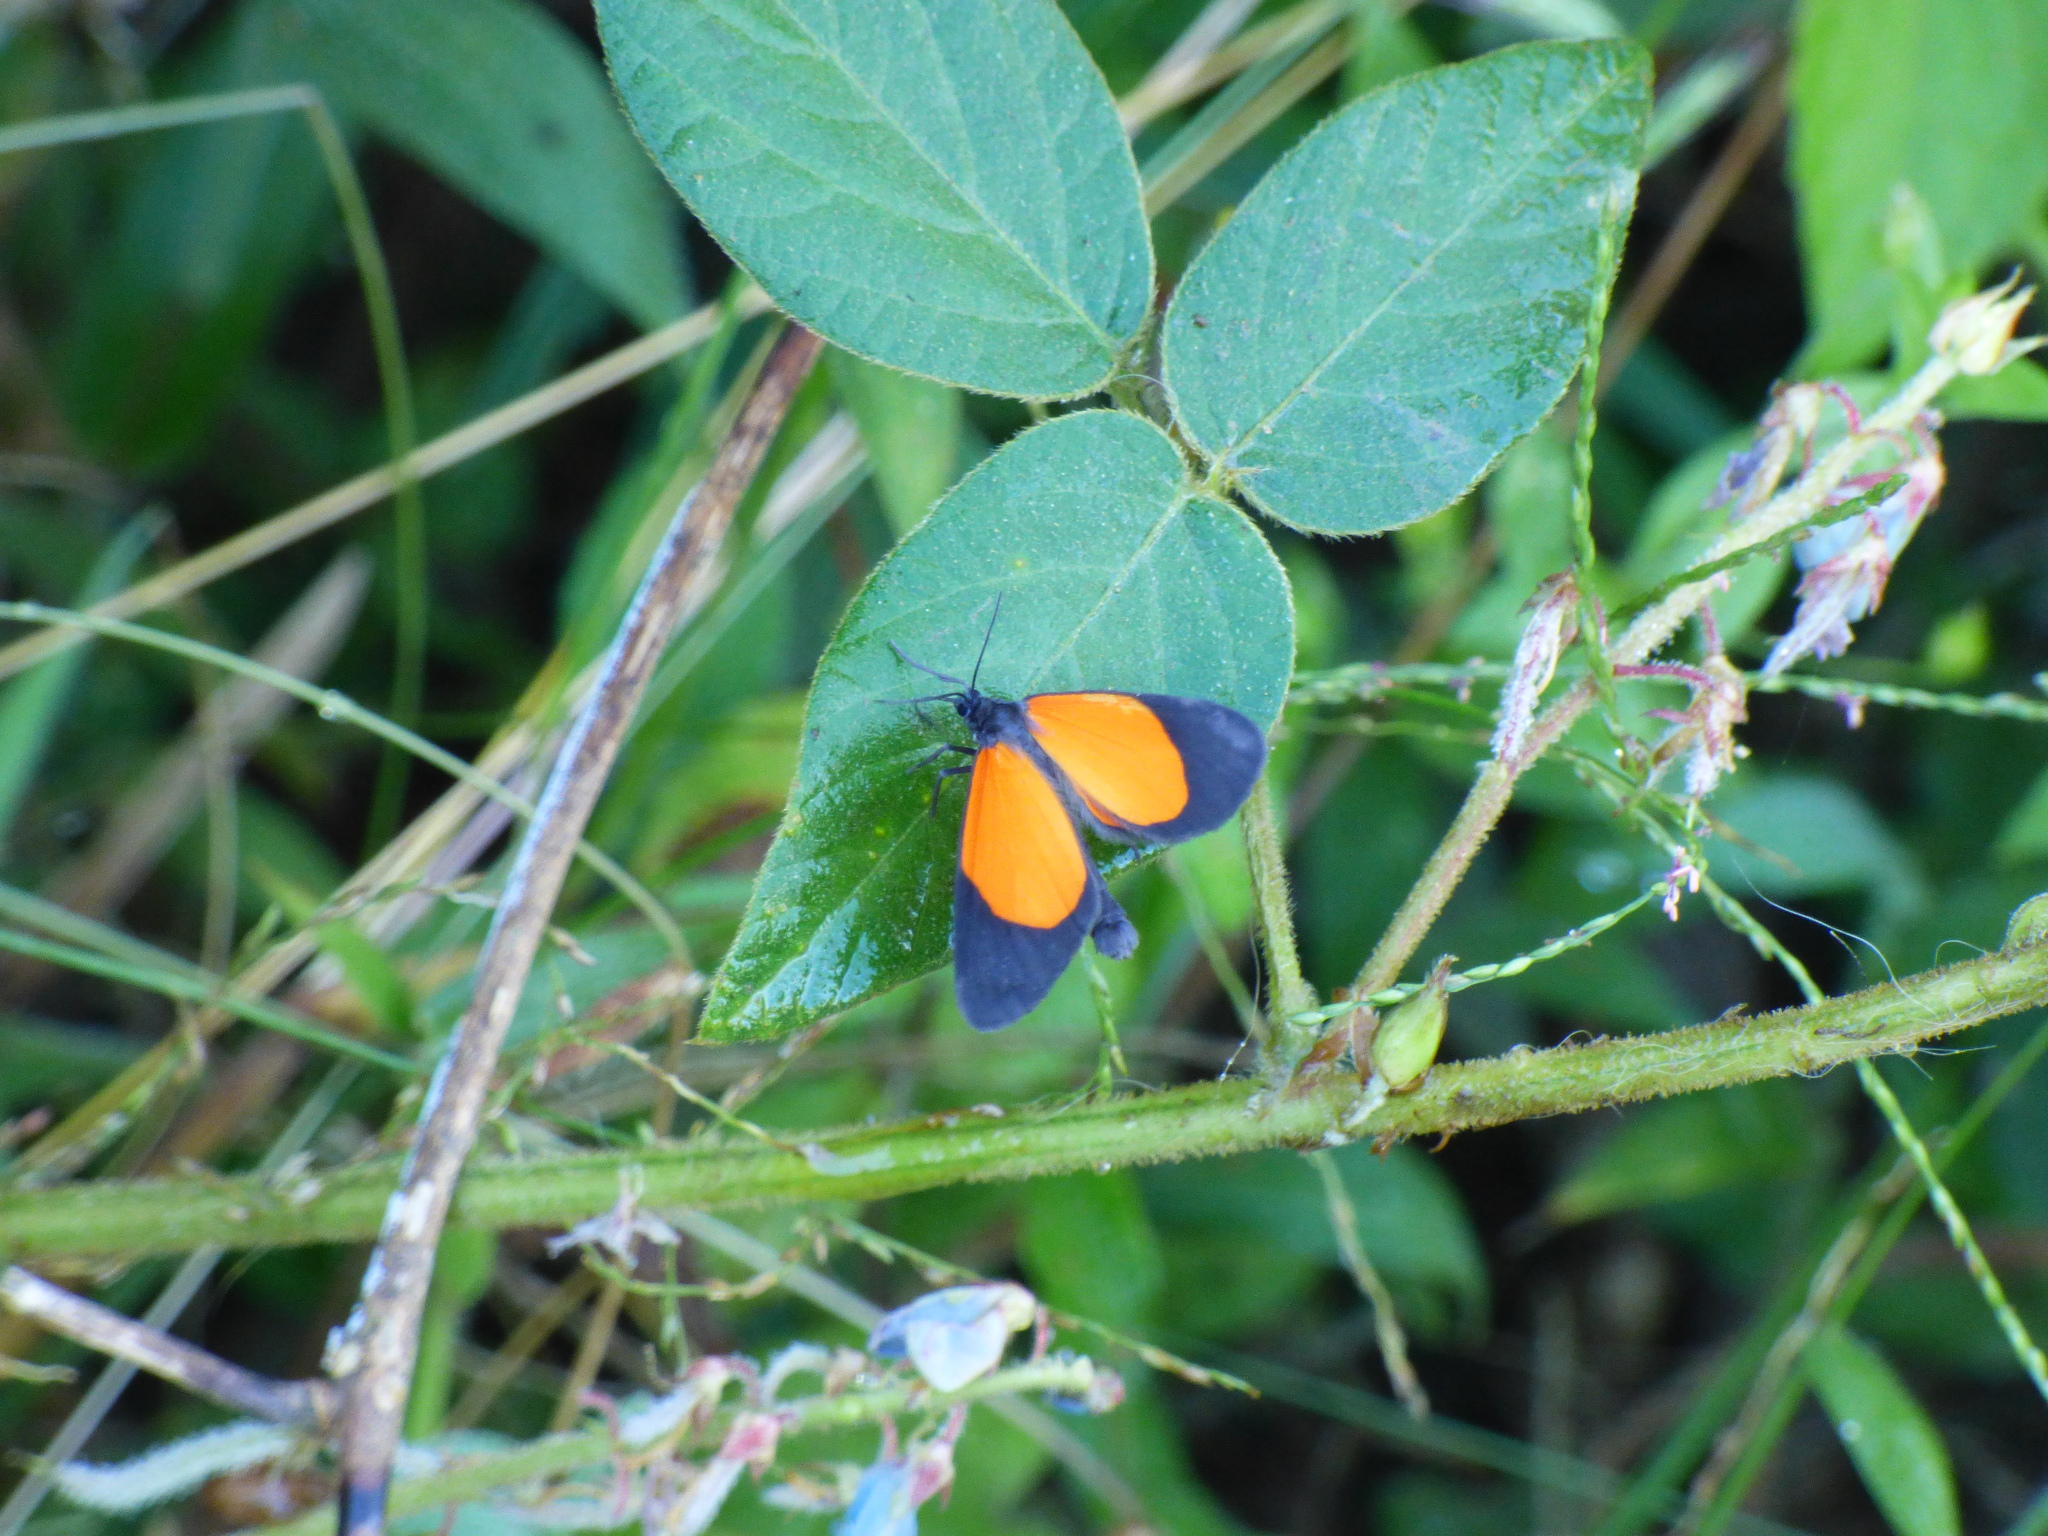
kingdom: Animalia
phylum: Arthropoda
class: Insecta
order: Lepidoptera
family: Geometridae
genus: Eudule
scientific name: Eudule fidentia
